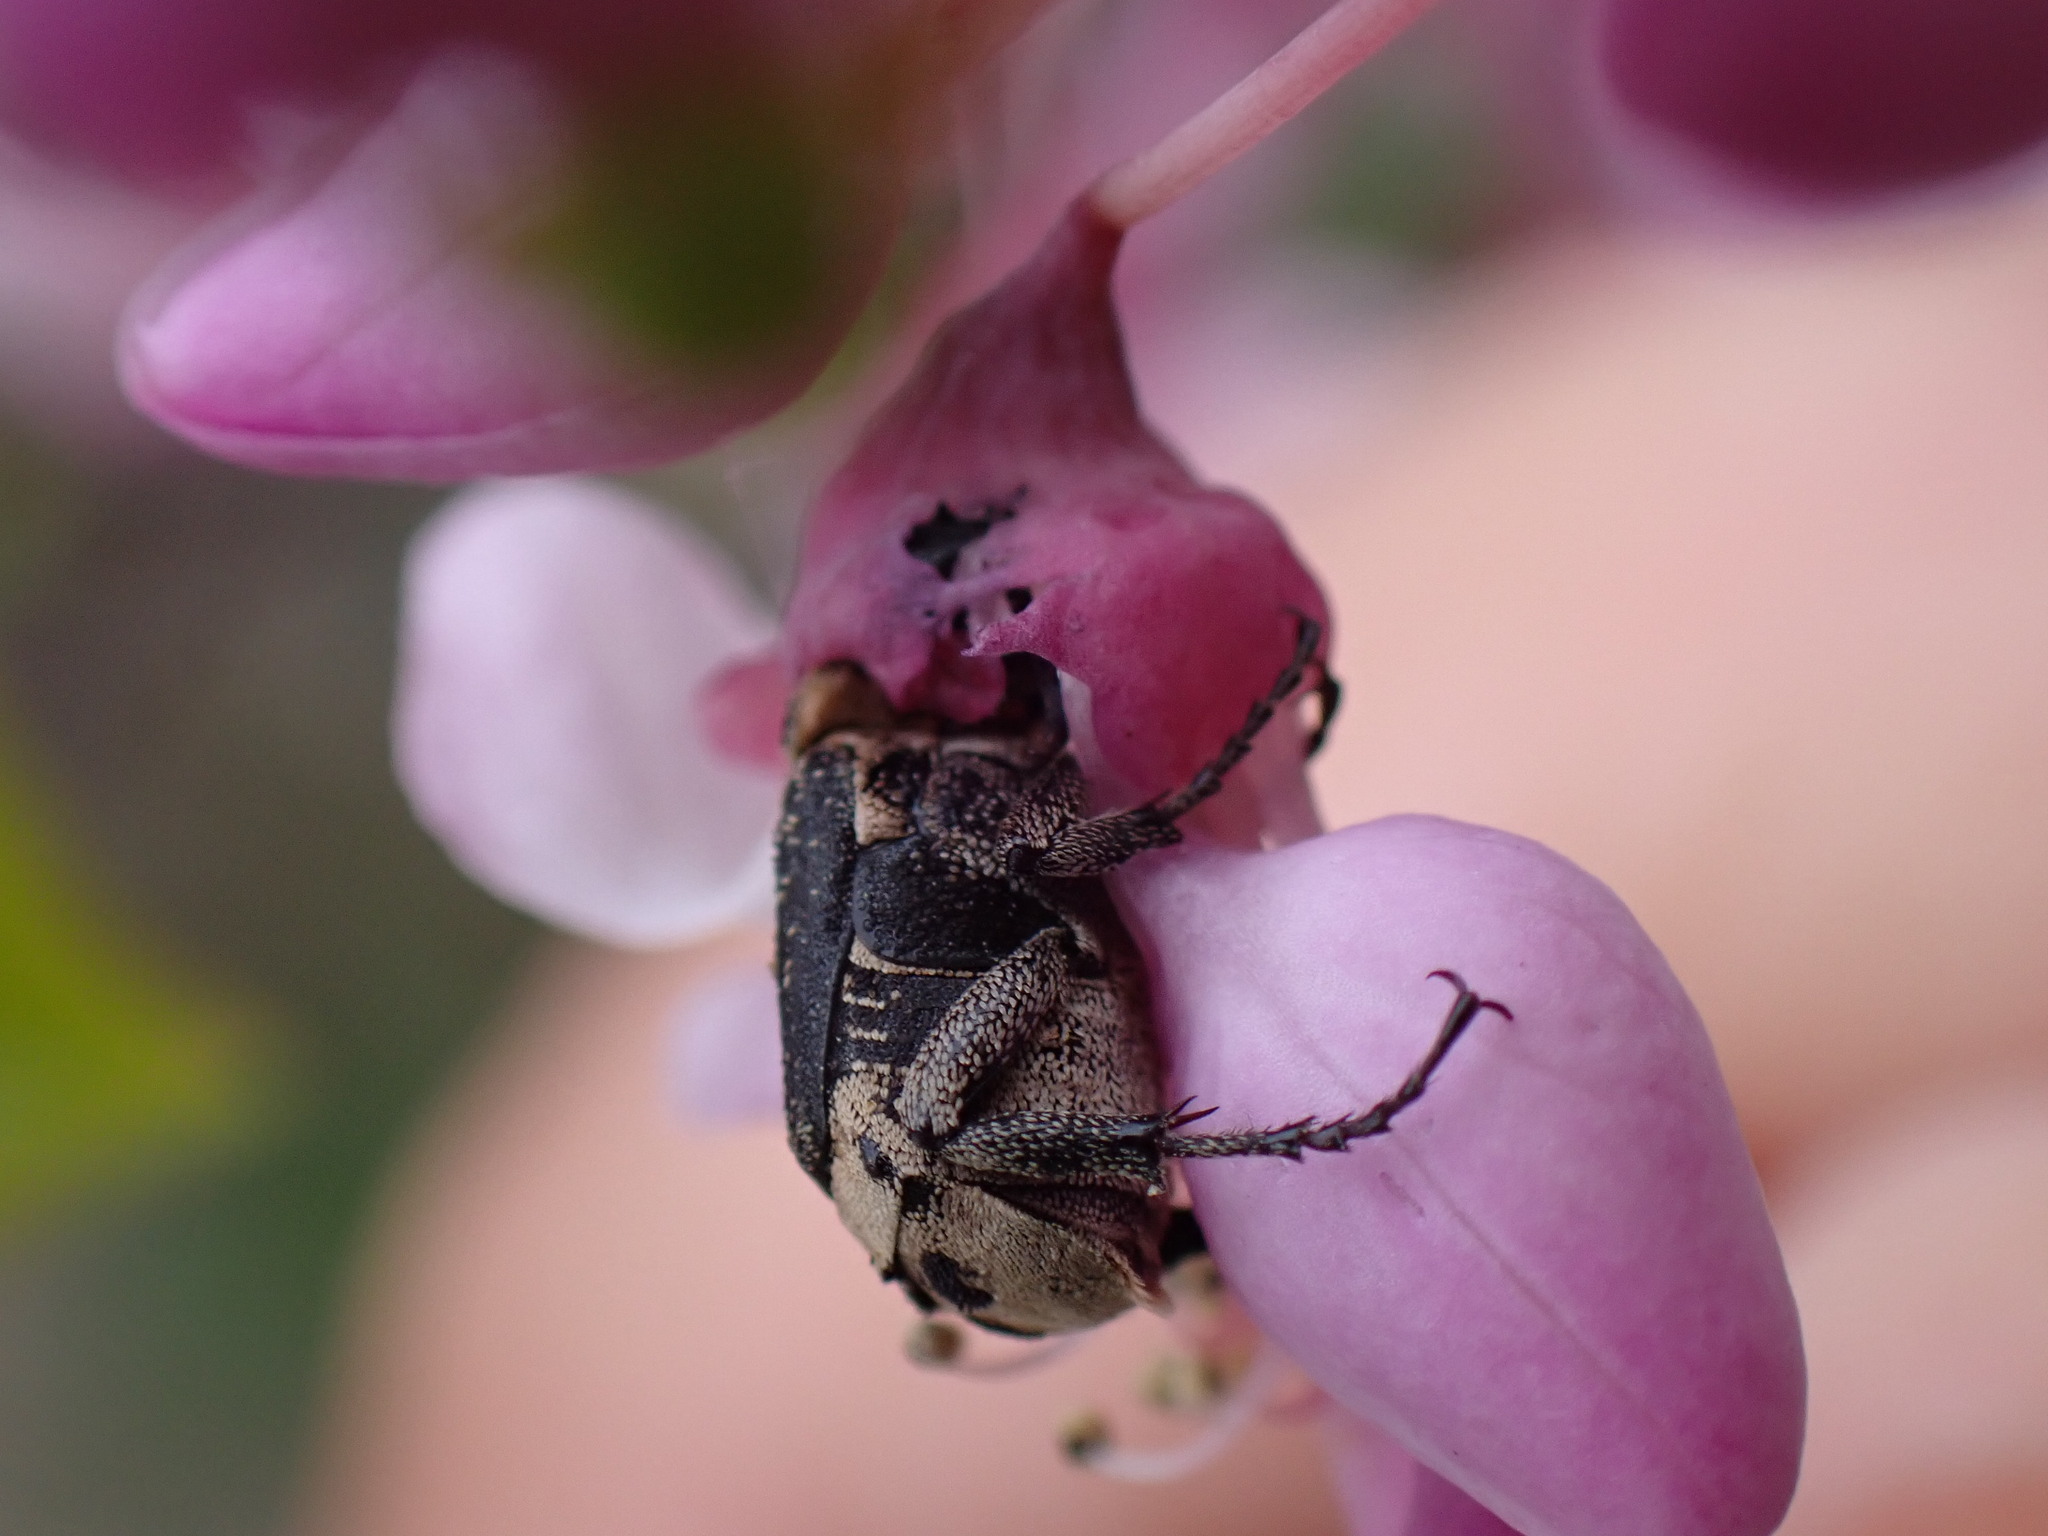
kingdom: Animalia
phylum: Arthropoda
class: Insecta
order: Coleoptera
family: Scarabaeidae
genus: Valgus
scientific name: Valgus hemipterus
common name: Bug flower chafer
